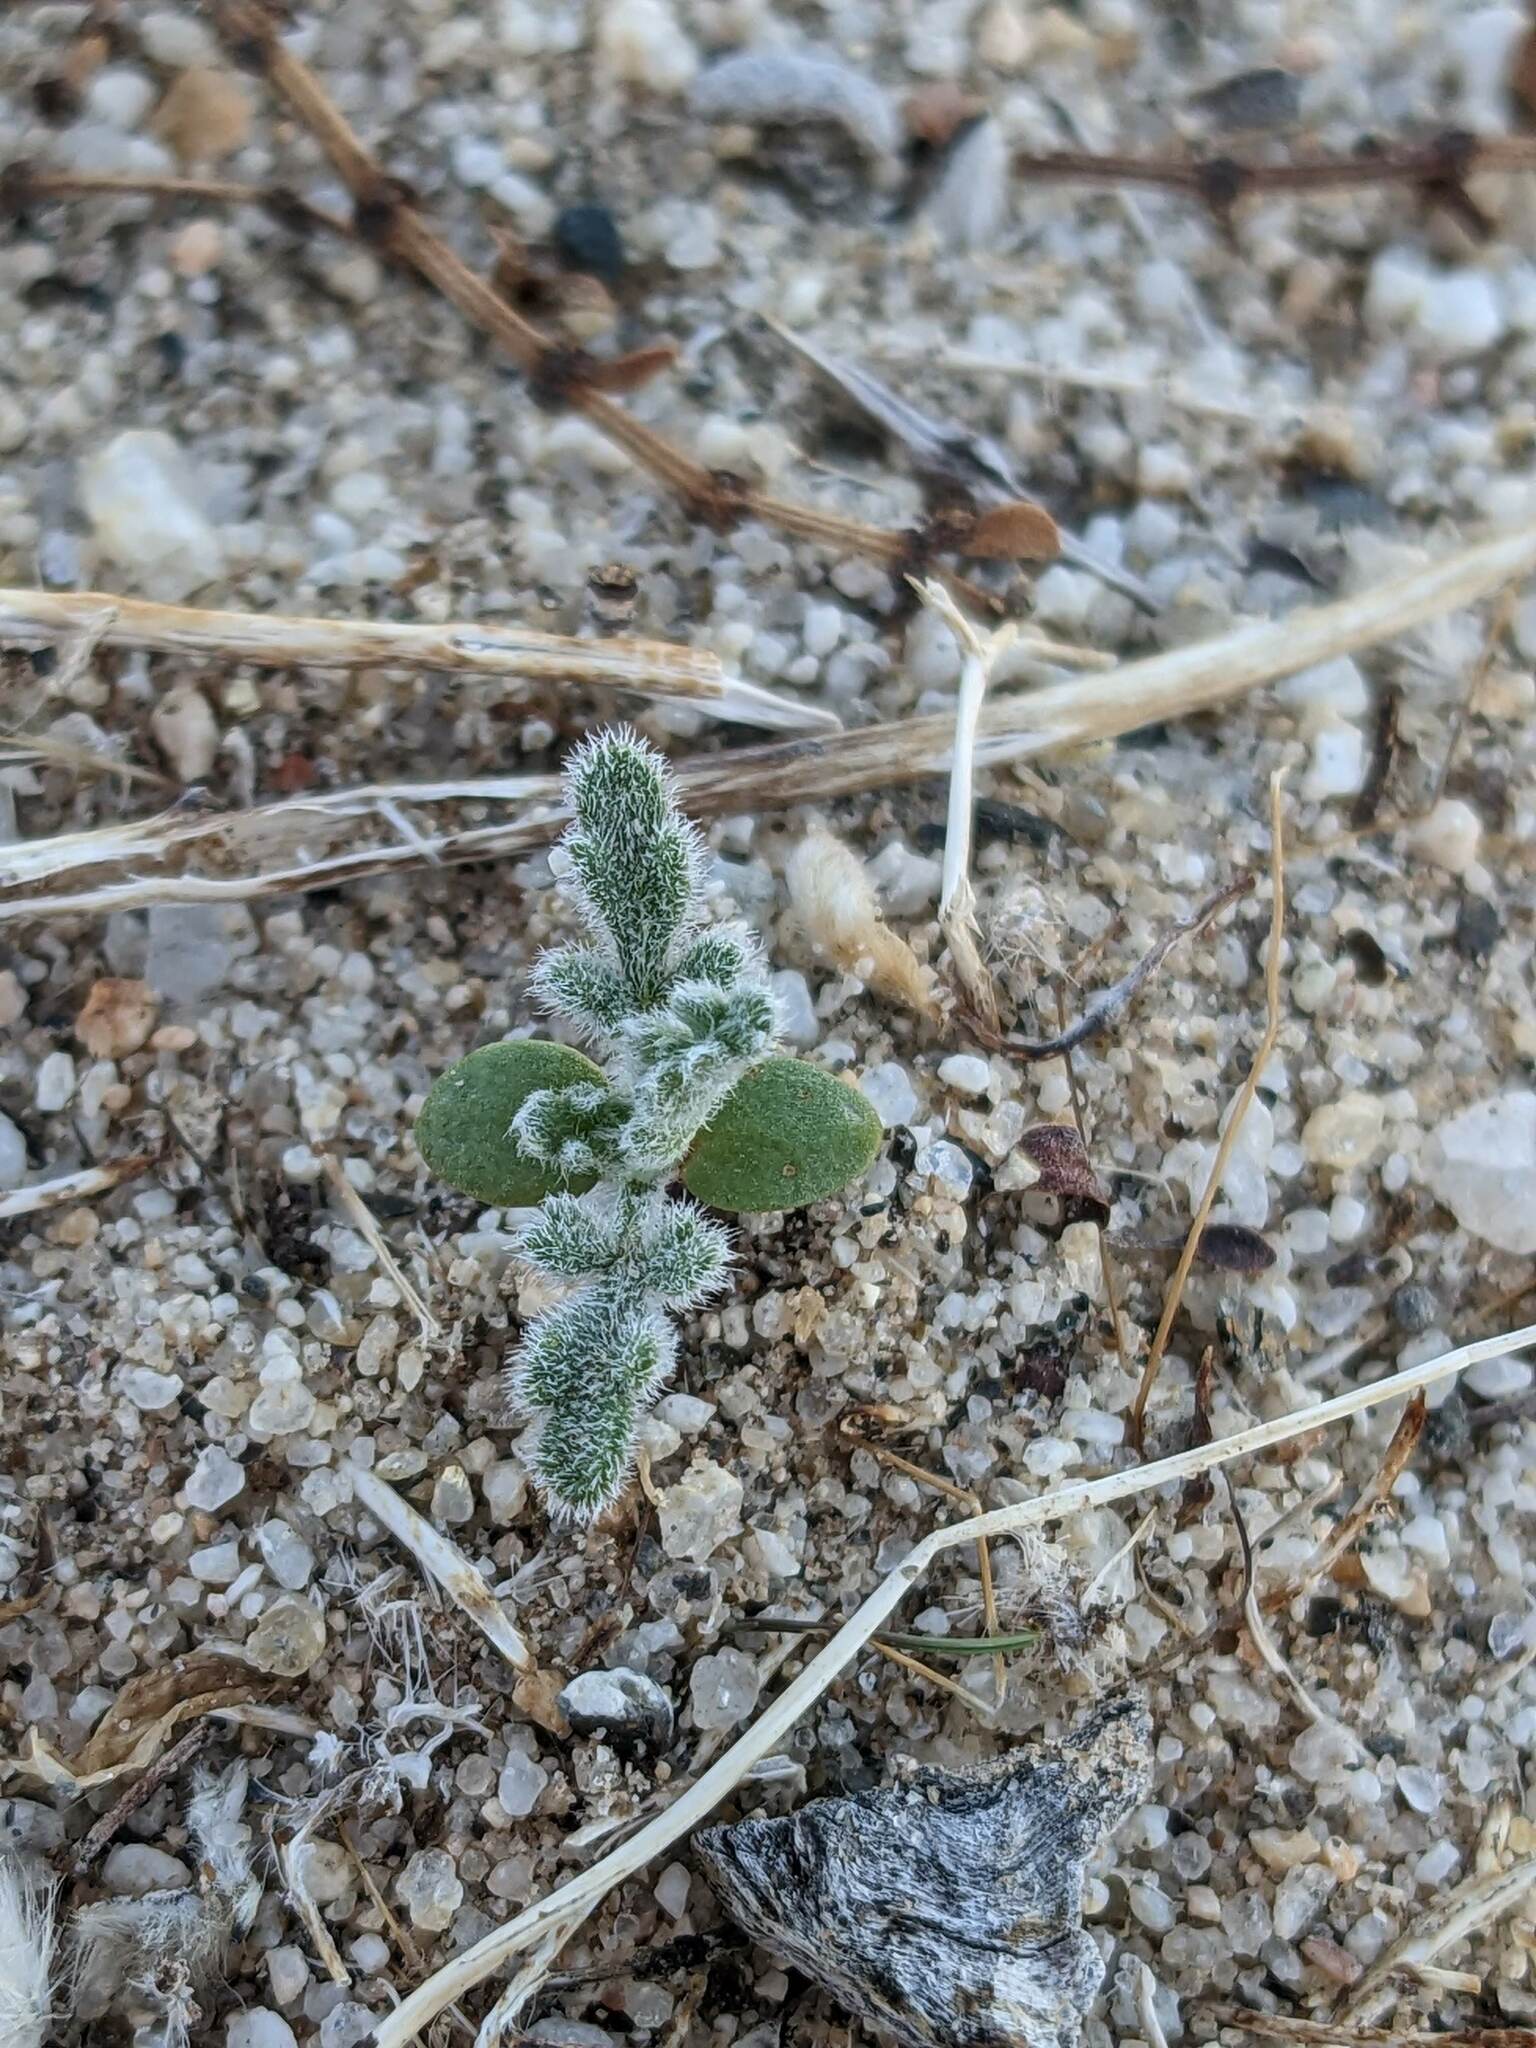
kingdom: Plantae
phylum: Tracheophyta
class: Magnoliopsida
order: Asterales
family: Asteraceae
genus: Ambrosia
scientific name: Ambrosia dumosa
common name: Bur-sage
